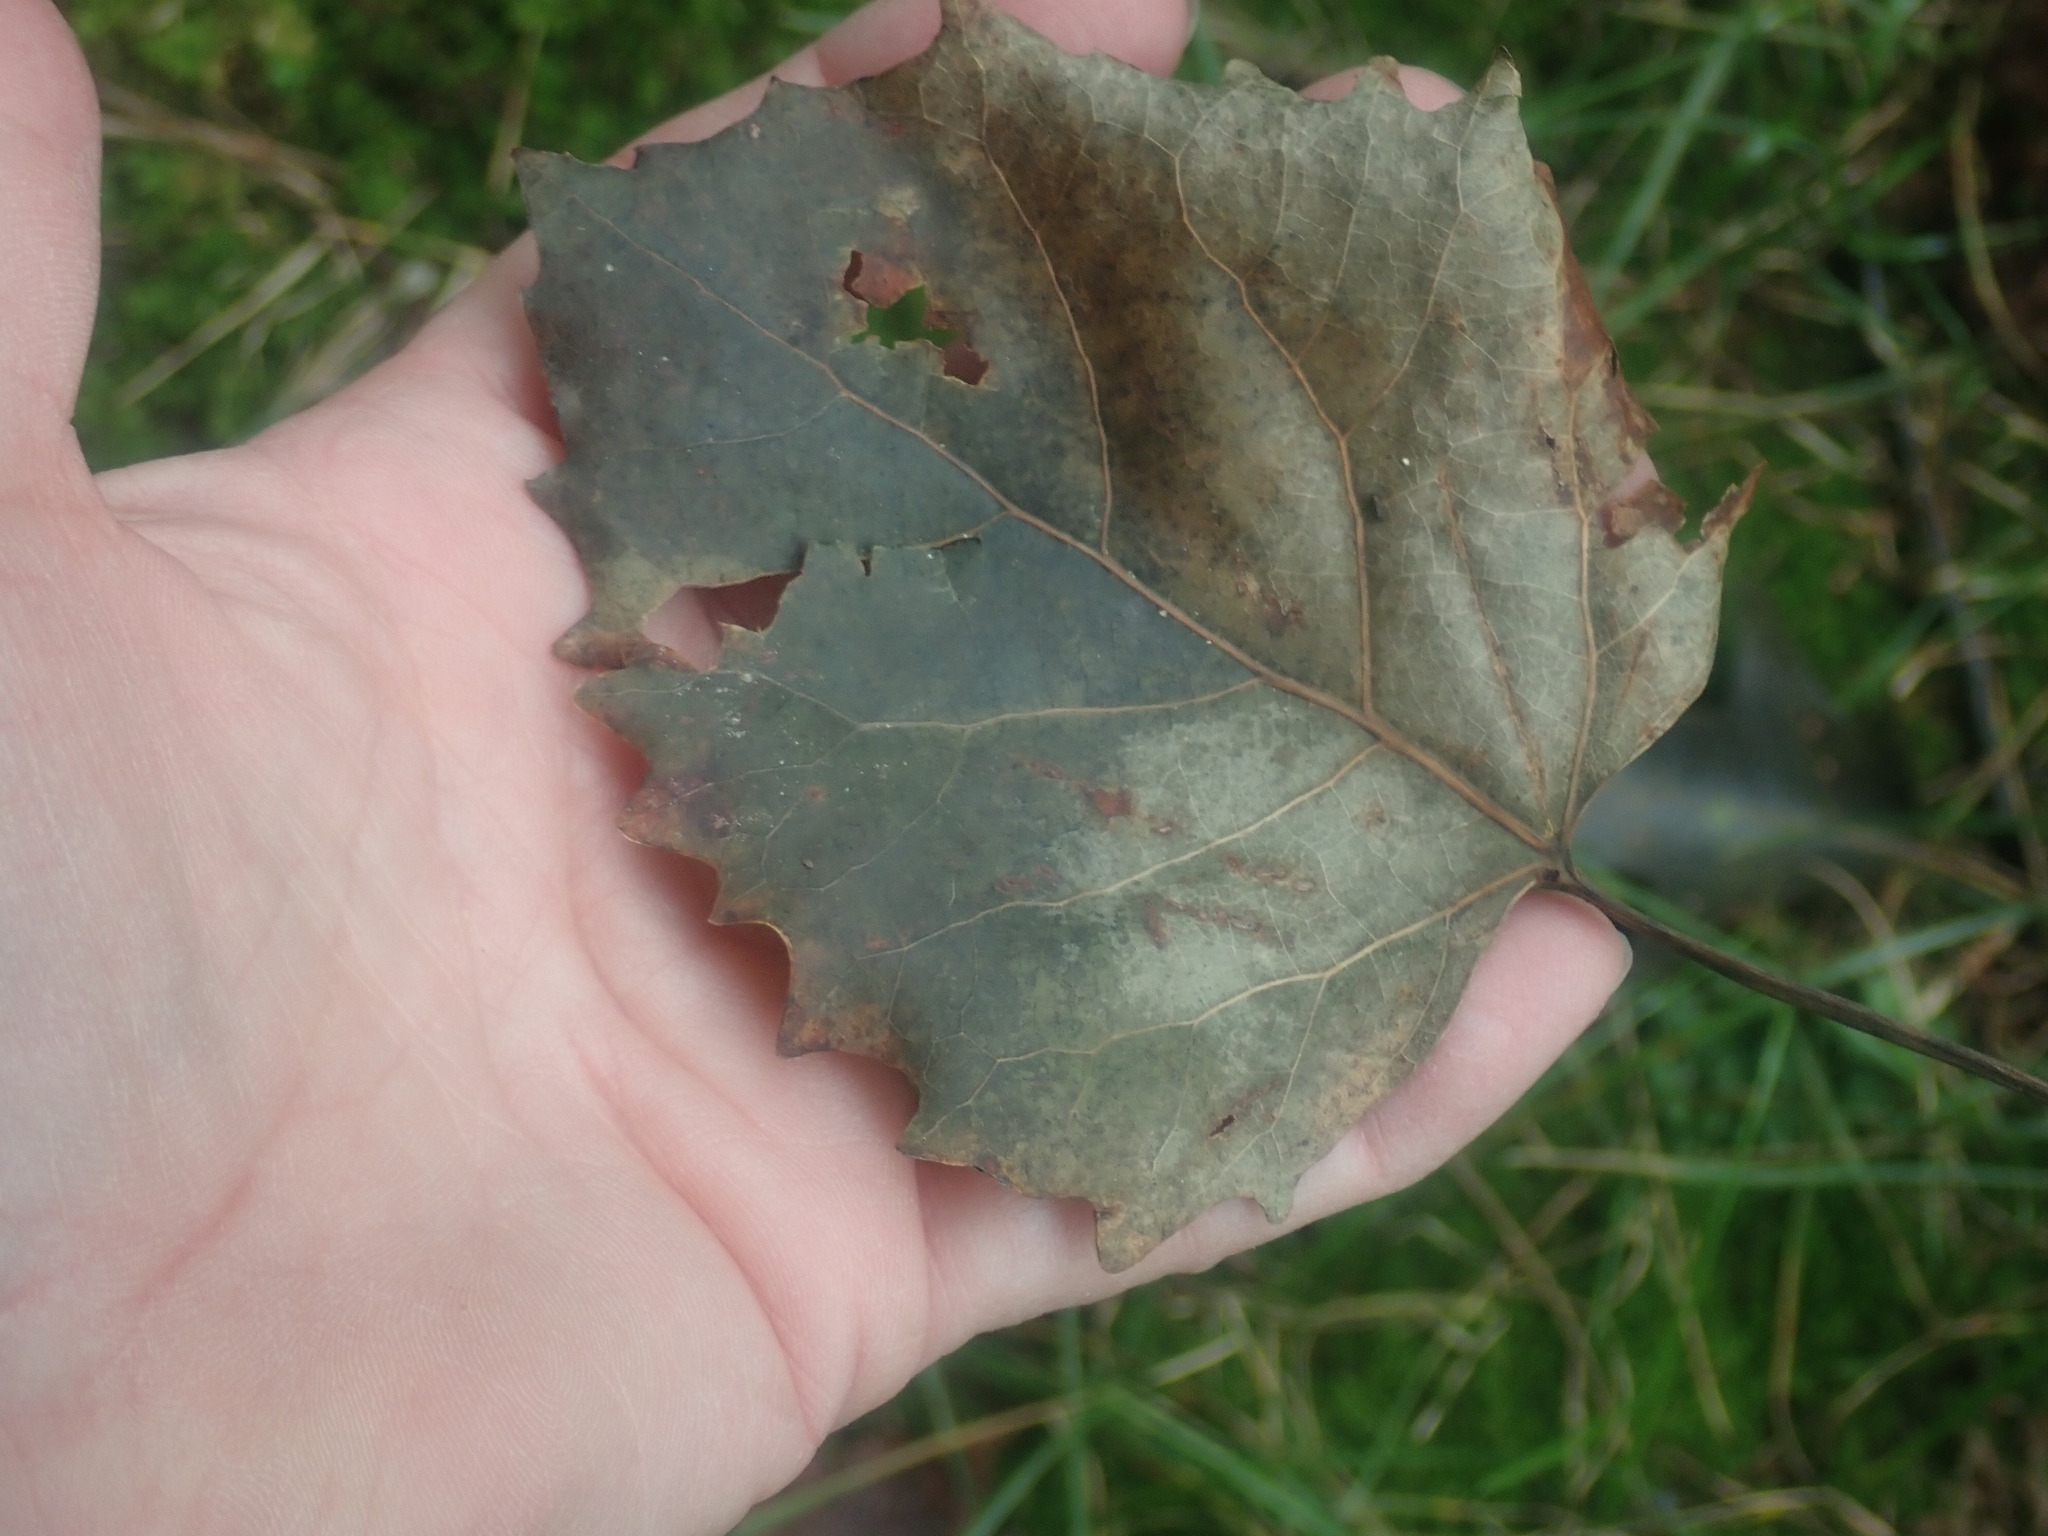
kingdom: Plantae
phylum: Tracheophyta
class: Magnoliopsida
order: Malpighiales
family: Salicaceae
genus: Populus
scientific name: Populus grandidentata
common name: Bigtooth aspen
